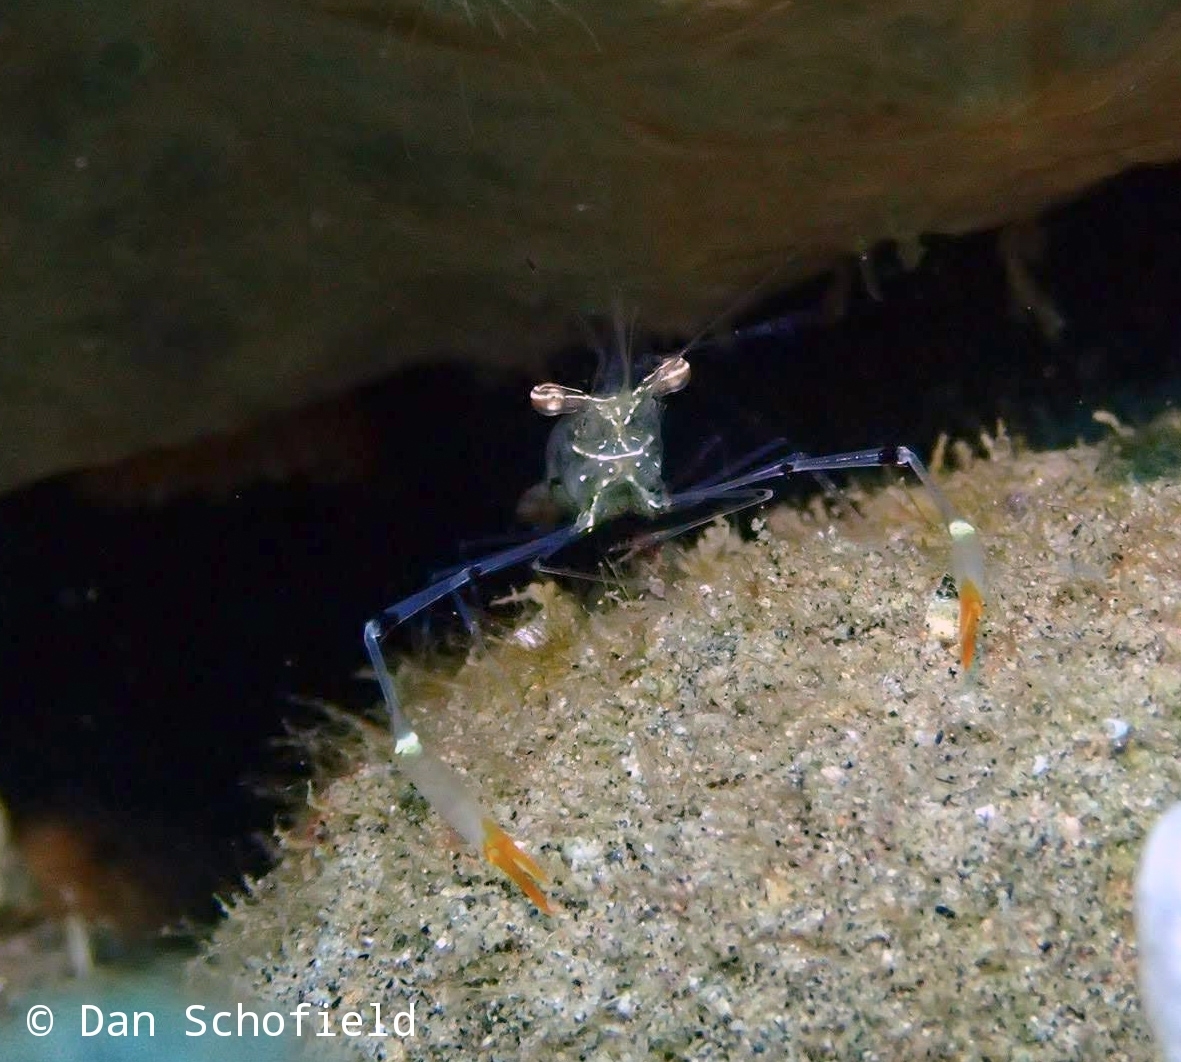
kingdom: Animalia
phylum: Arthropoda
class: Malacostraca
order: Decapoda
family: Palaemonidae
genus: Cuapetes
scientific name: Cuapetes tenuipes
